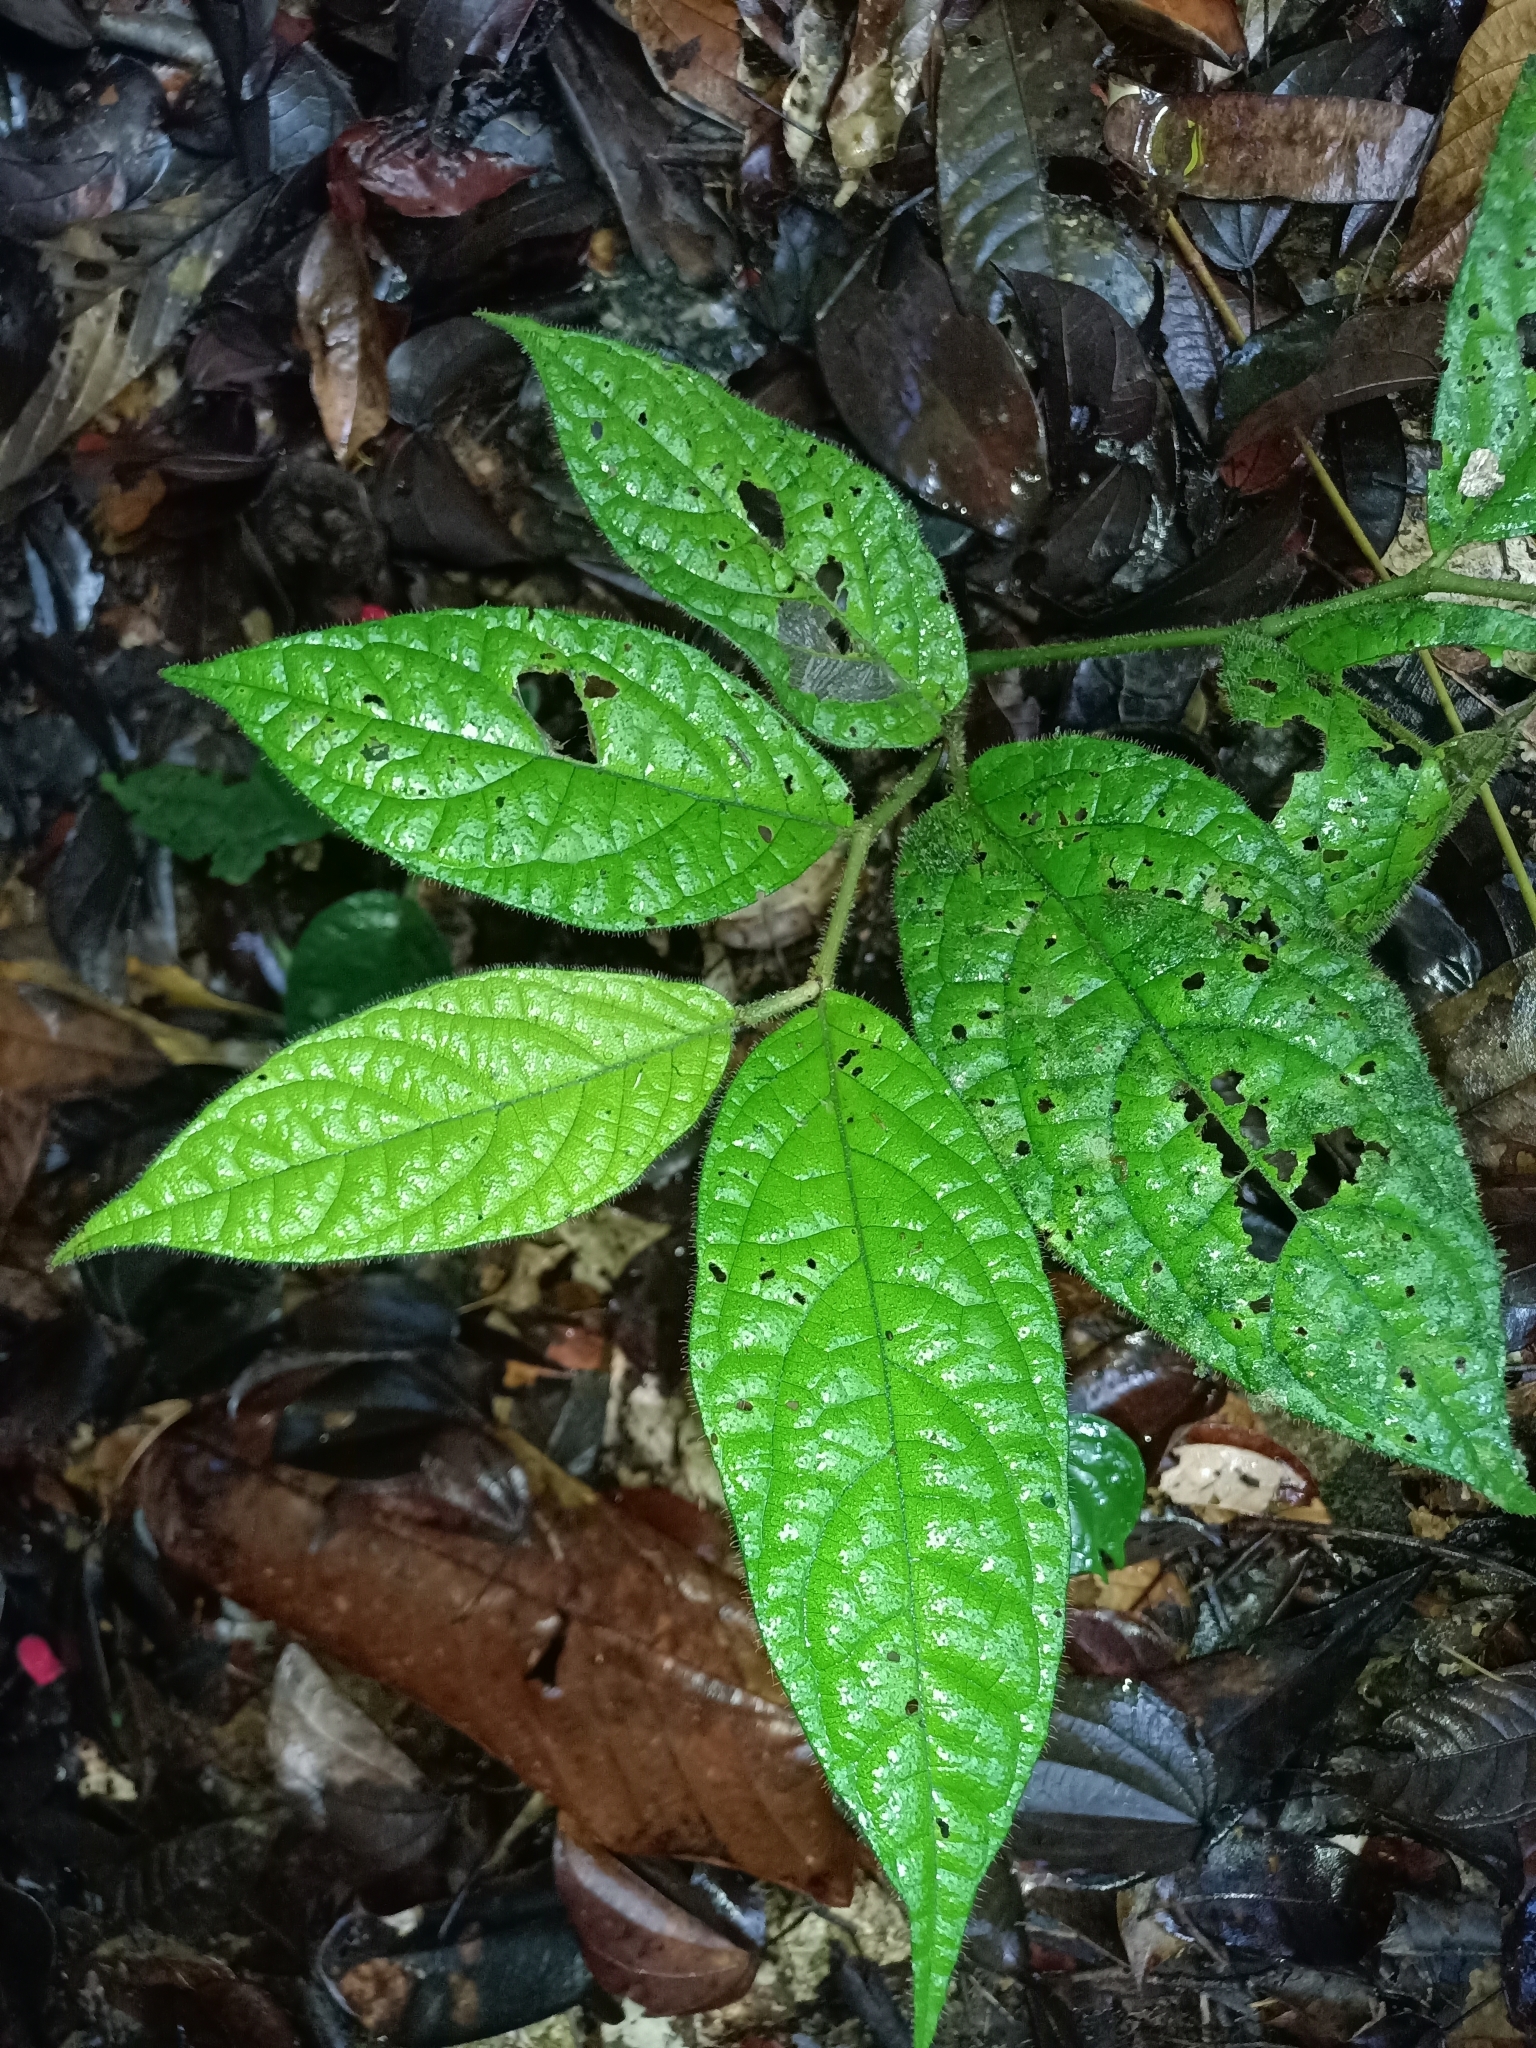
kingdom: Plantae
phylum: Tracheophyta
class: Magnoliopsida
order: Piperales
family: Piperaceae
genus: Piper
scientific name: Piper brownsbergense
